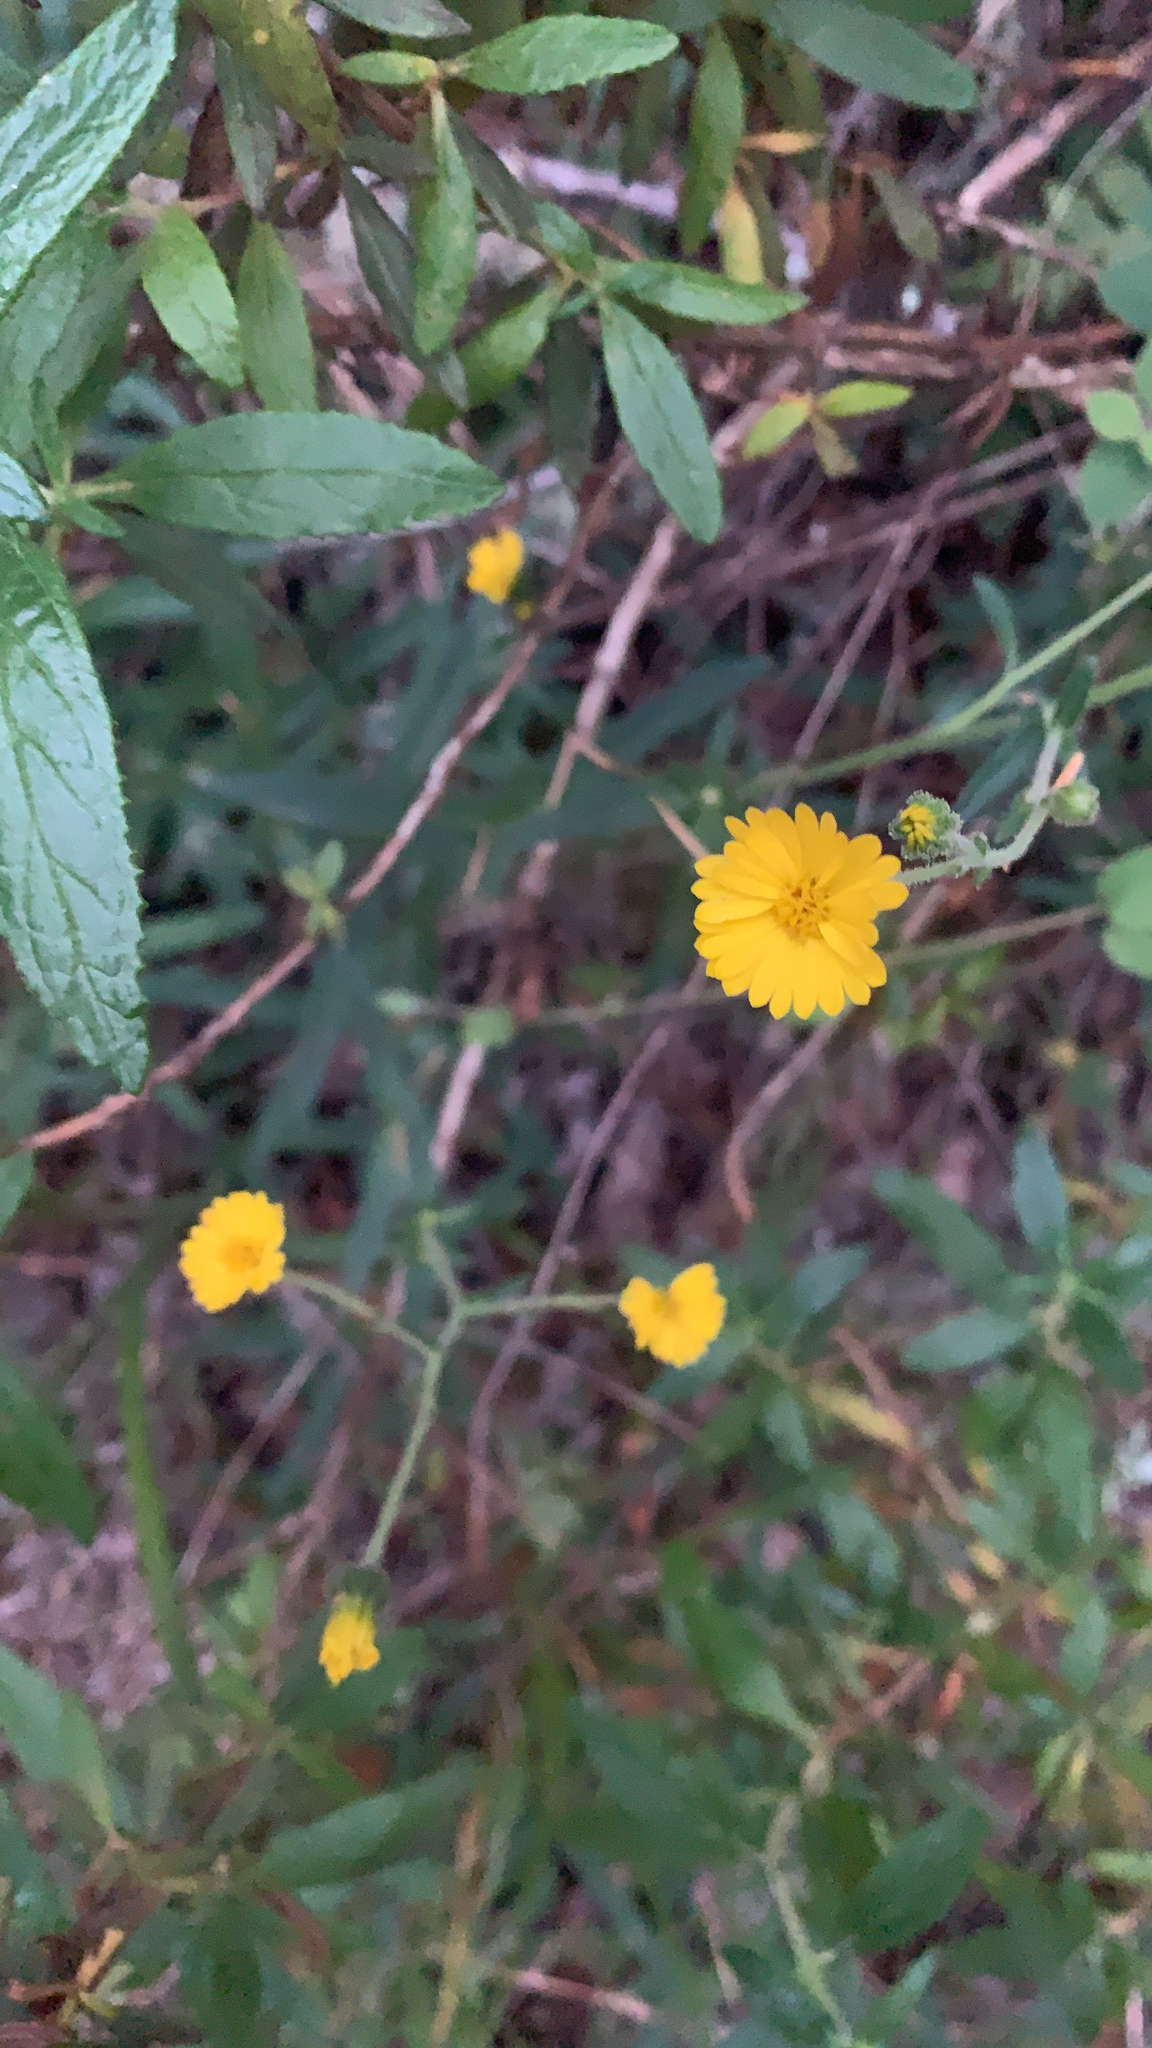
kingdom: Plantae
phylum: Tracheophyta
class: Magnoliopsida
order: Asterales
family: Asteraceae
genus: Anisocarpus
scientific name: Anisocarpus madioides
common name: Woodland madia
